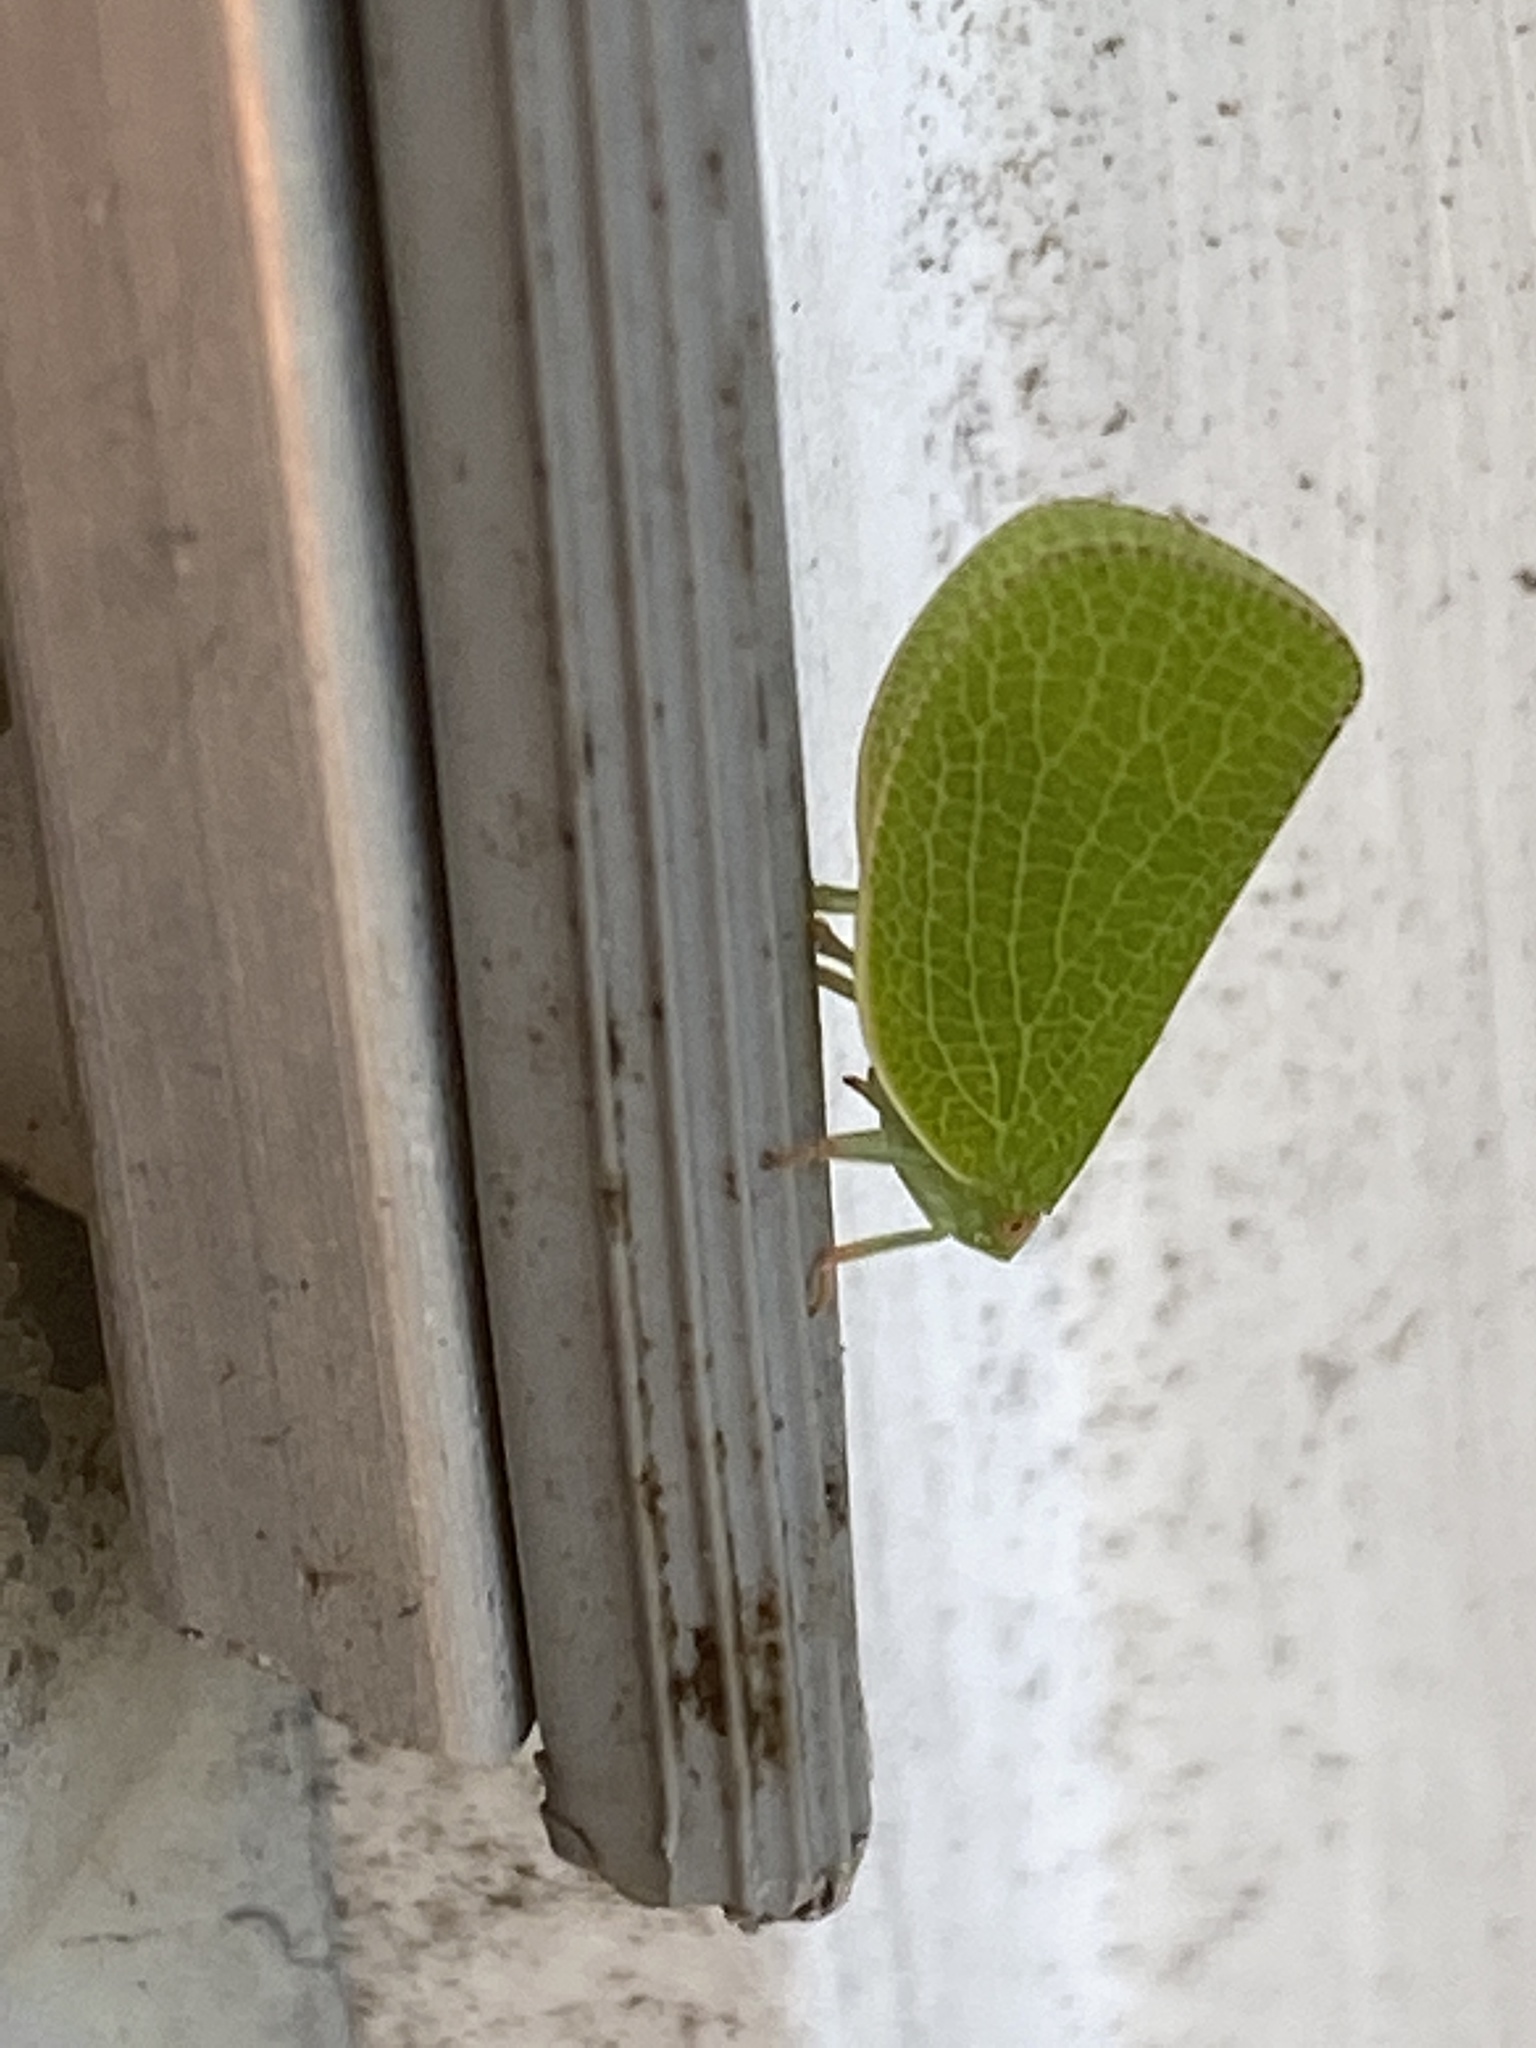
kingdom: Animalia
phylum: Arthropoda
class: Insecta
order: Hemiptera
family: Acanaloniidae
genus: Acanalonia
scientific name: Acanalonia conica
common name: Green cone-headed planthopper
